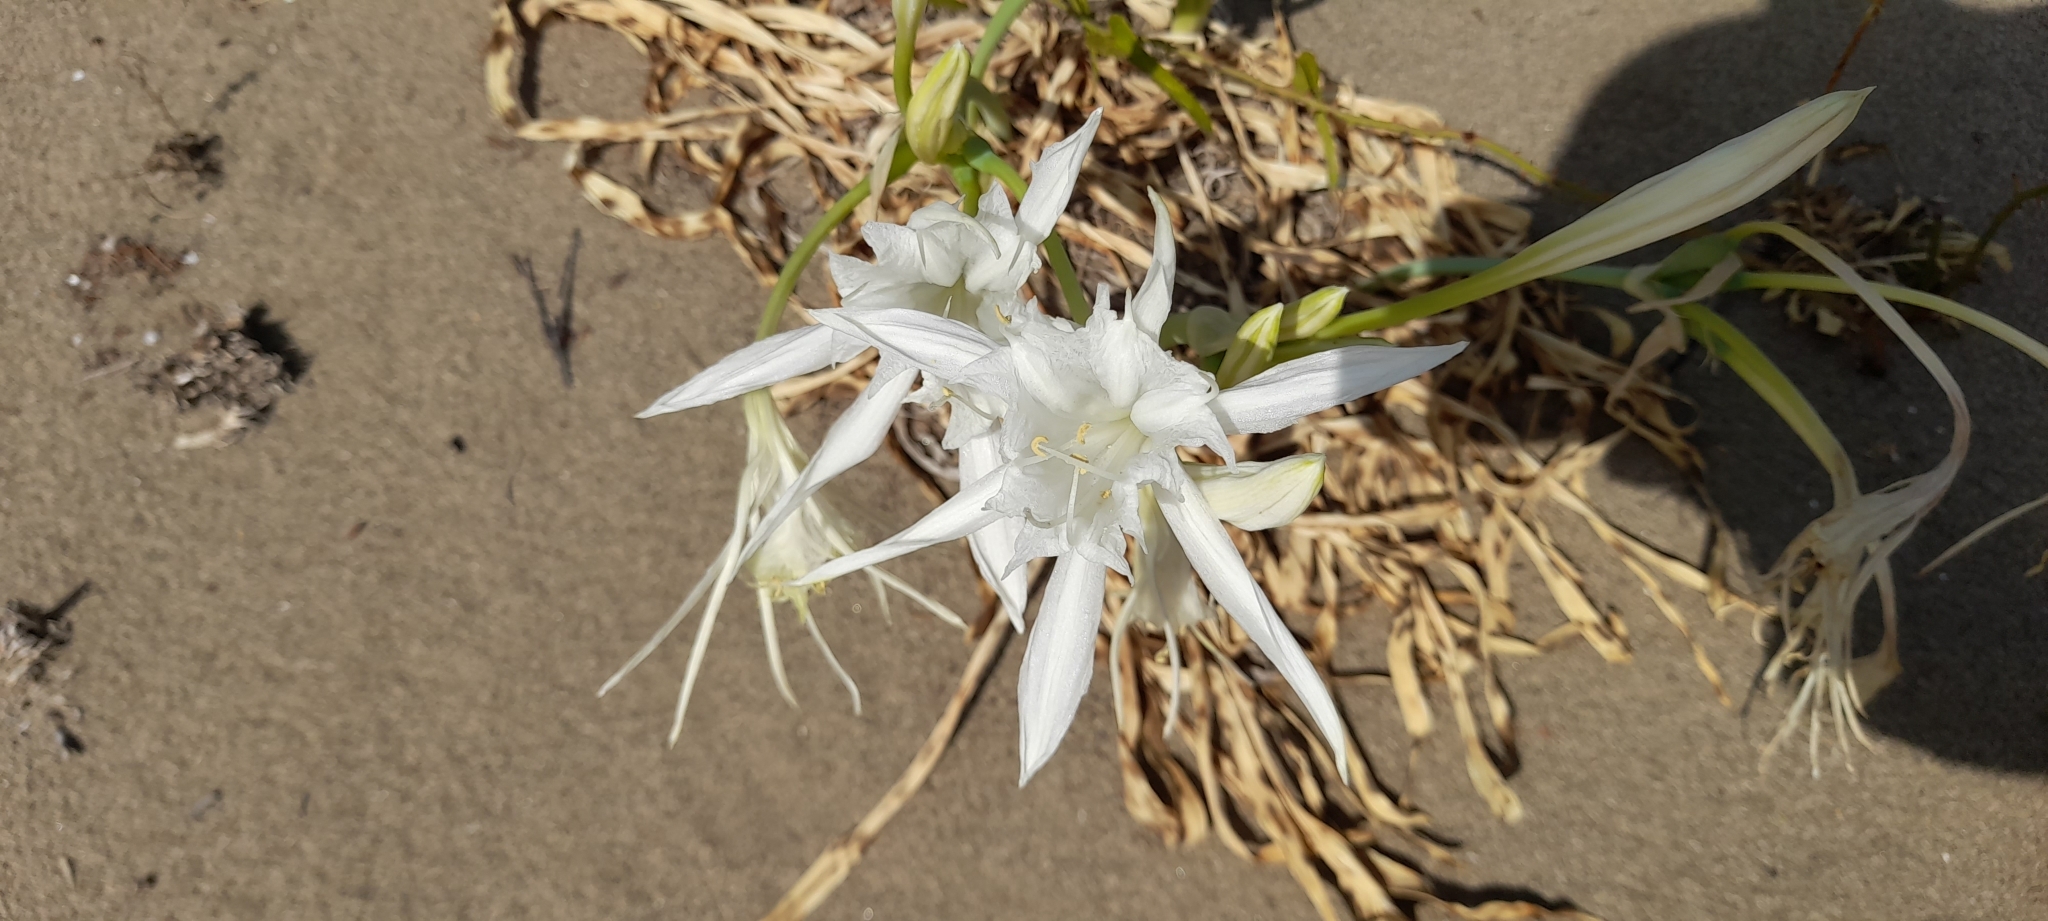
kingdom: Plantae
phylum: Tracheophyta
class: Liliopsida
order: Asparagales
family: Amaryllidaceae
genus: Pancratium
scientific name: Pancratium maritimum
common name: Sea-daffodil
